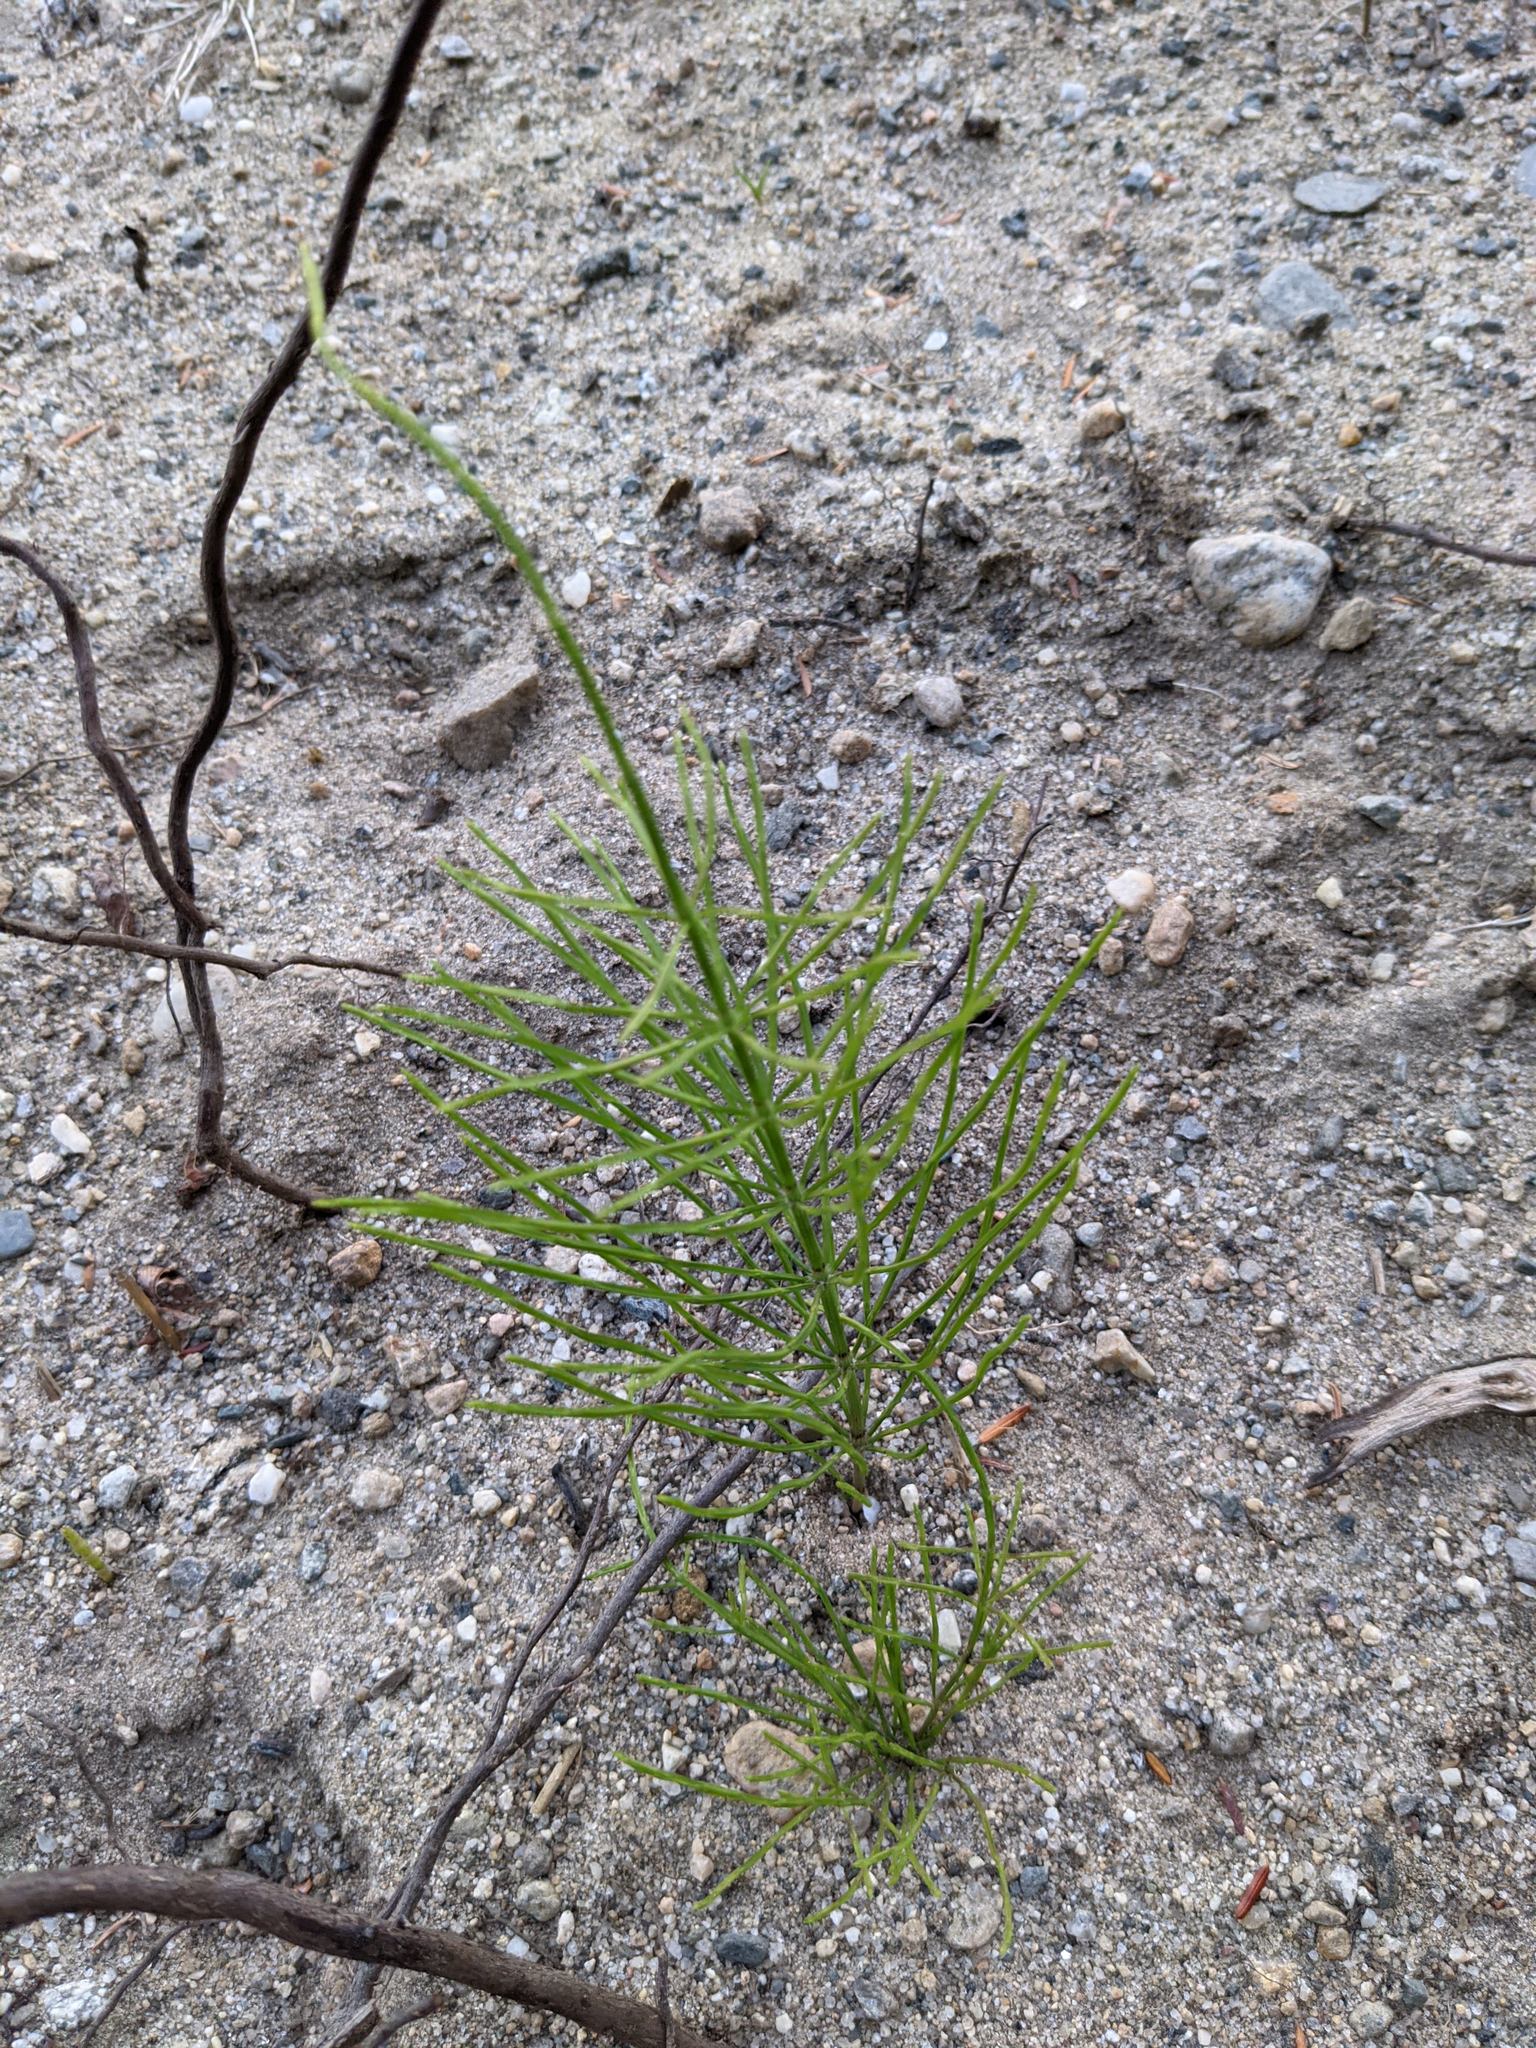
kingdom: Plantae
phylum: Tracheophyta
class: Polypodiopsida
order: Equisetales
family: Equisetaceae
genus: Equisetum
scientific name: Equisetum arvense
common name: Field horsetail
